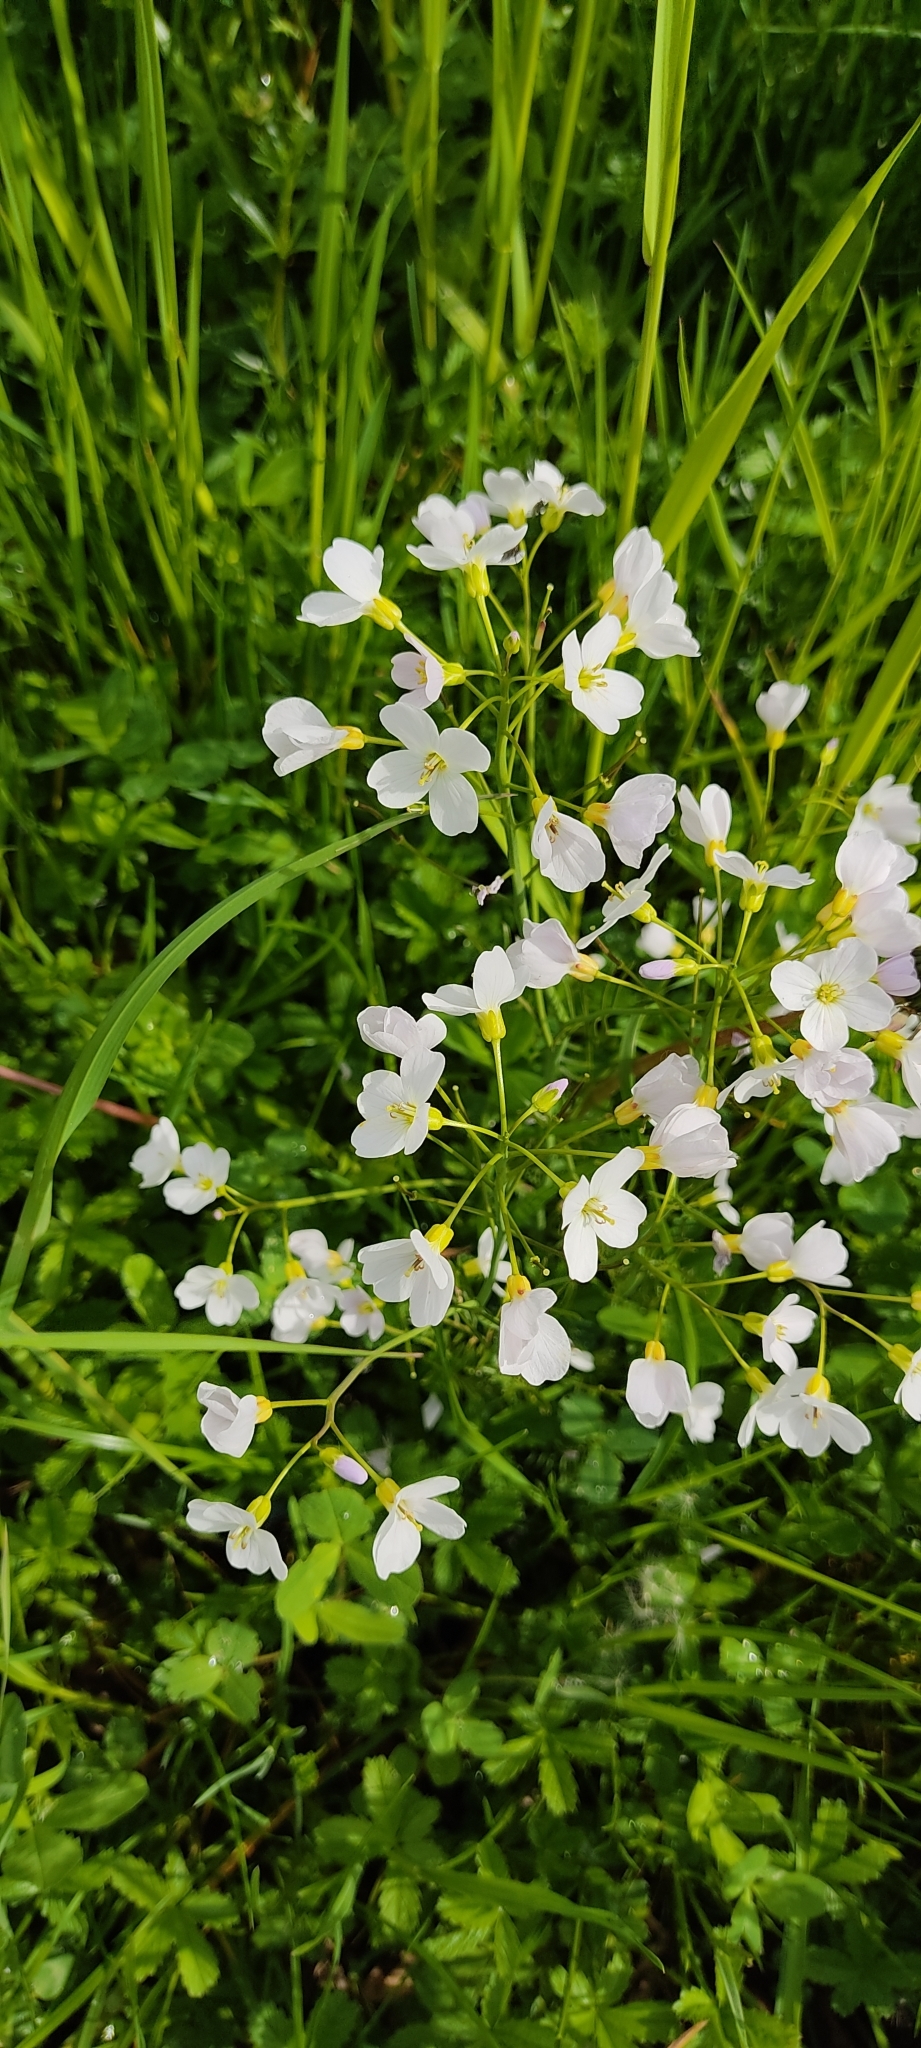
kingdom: Plantae
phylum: Tracheophyta
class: Magnoliopsida
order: Brassicales
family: Brassicaceae
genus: Cardamine
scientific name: Cardamine pratensis
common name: Cuckoo flower
